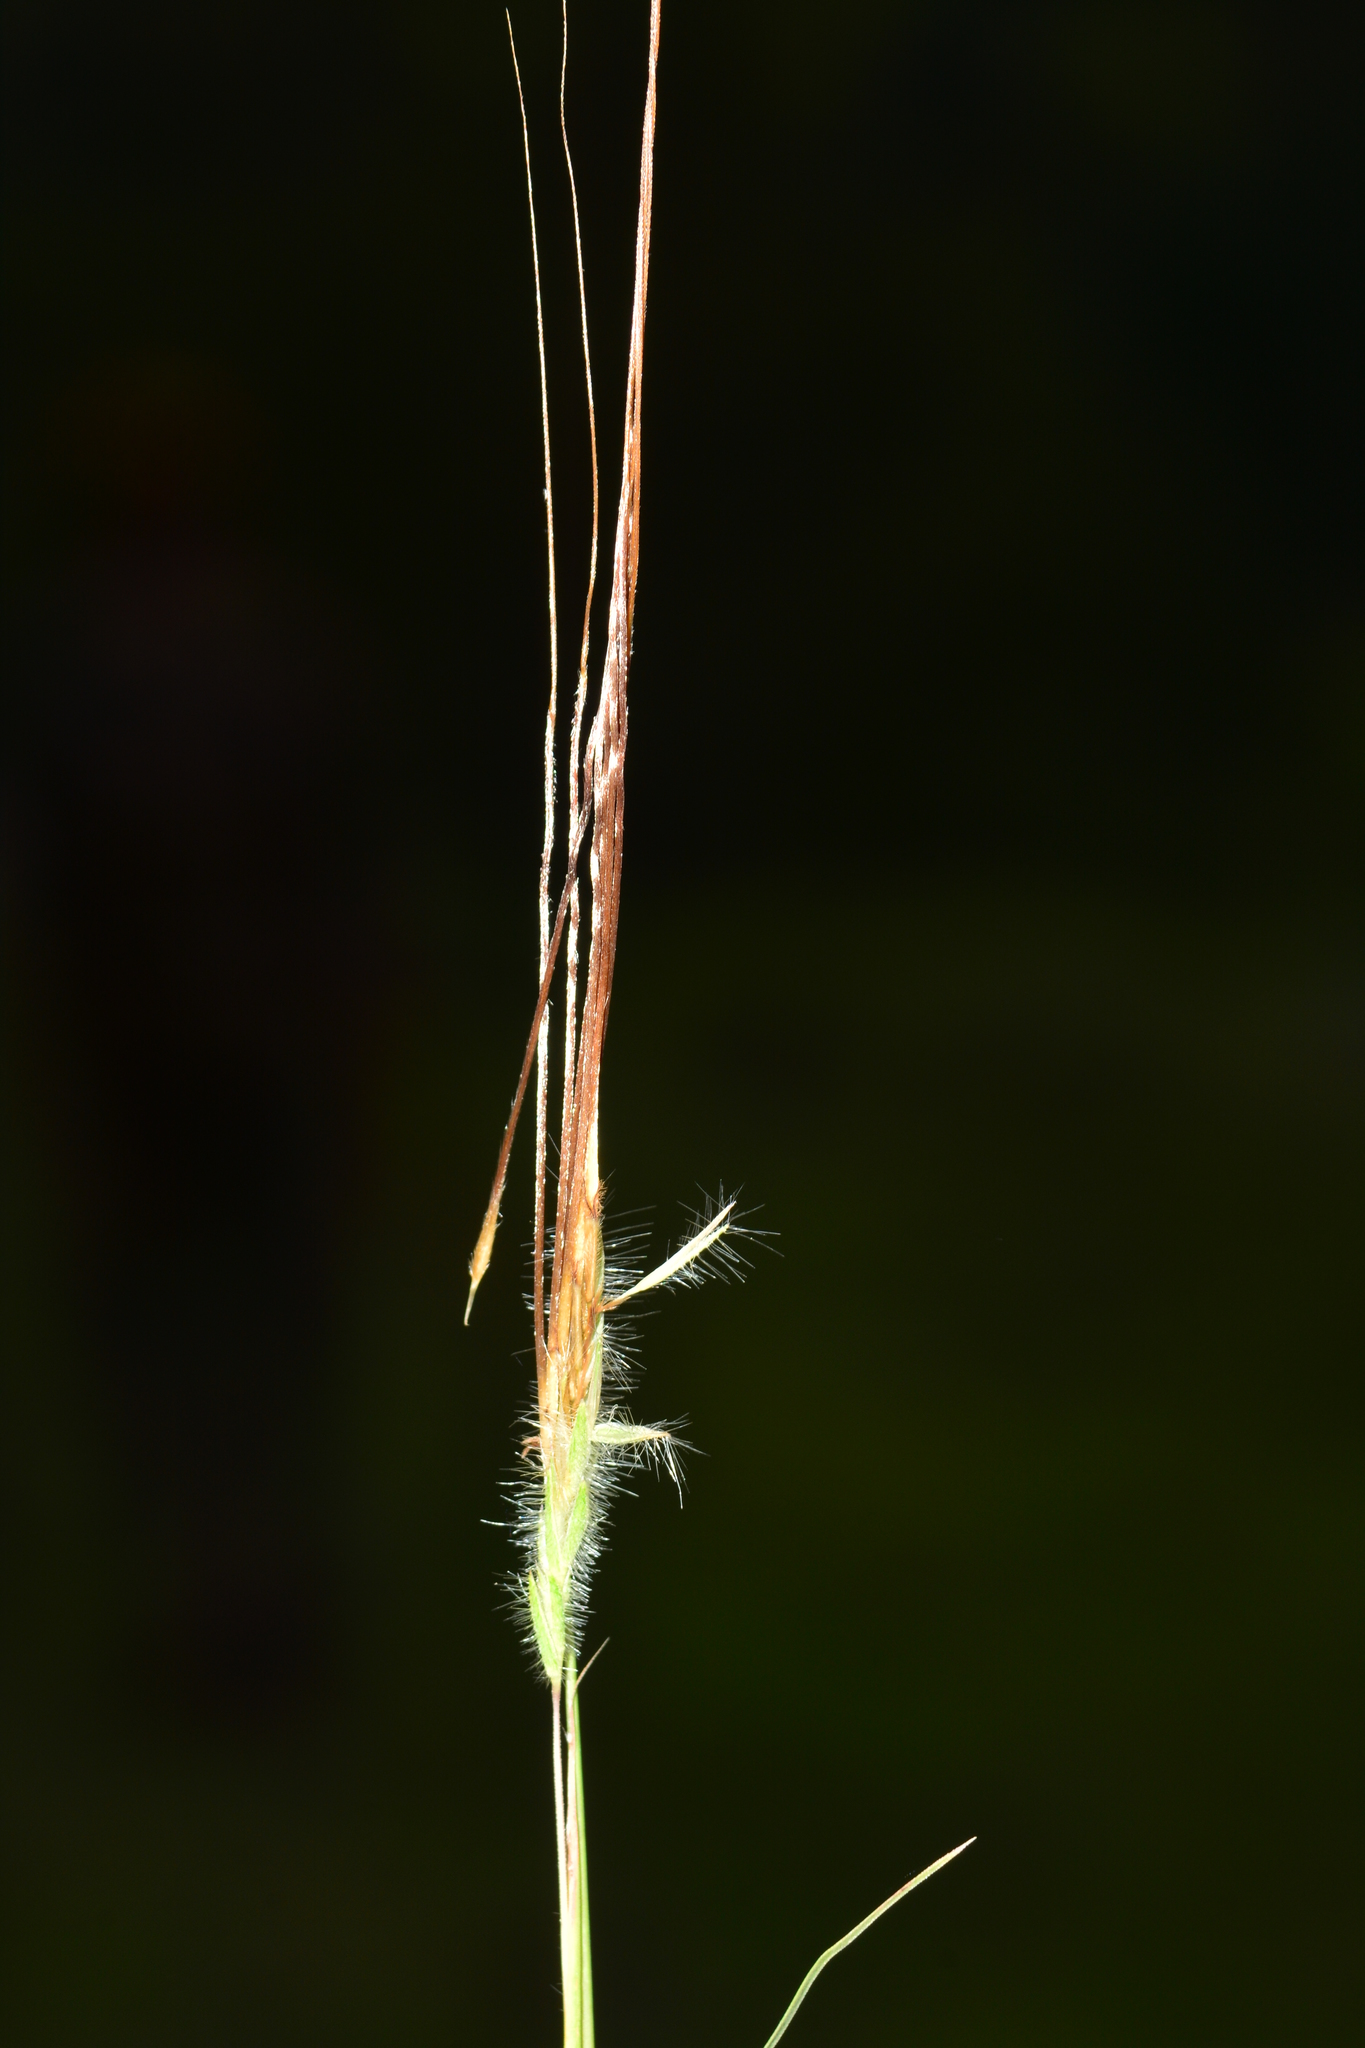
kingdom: Plantae
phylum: Tracheophyta
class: Liliopsida
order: Poales
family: Poaceae
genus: Heteropogon
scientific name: Heteropogon contortus
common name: Tanglehead
